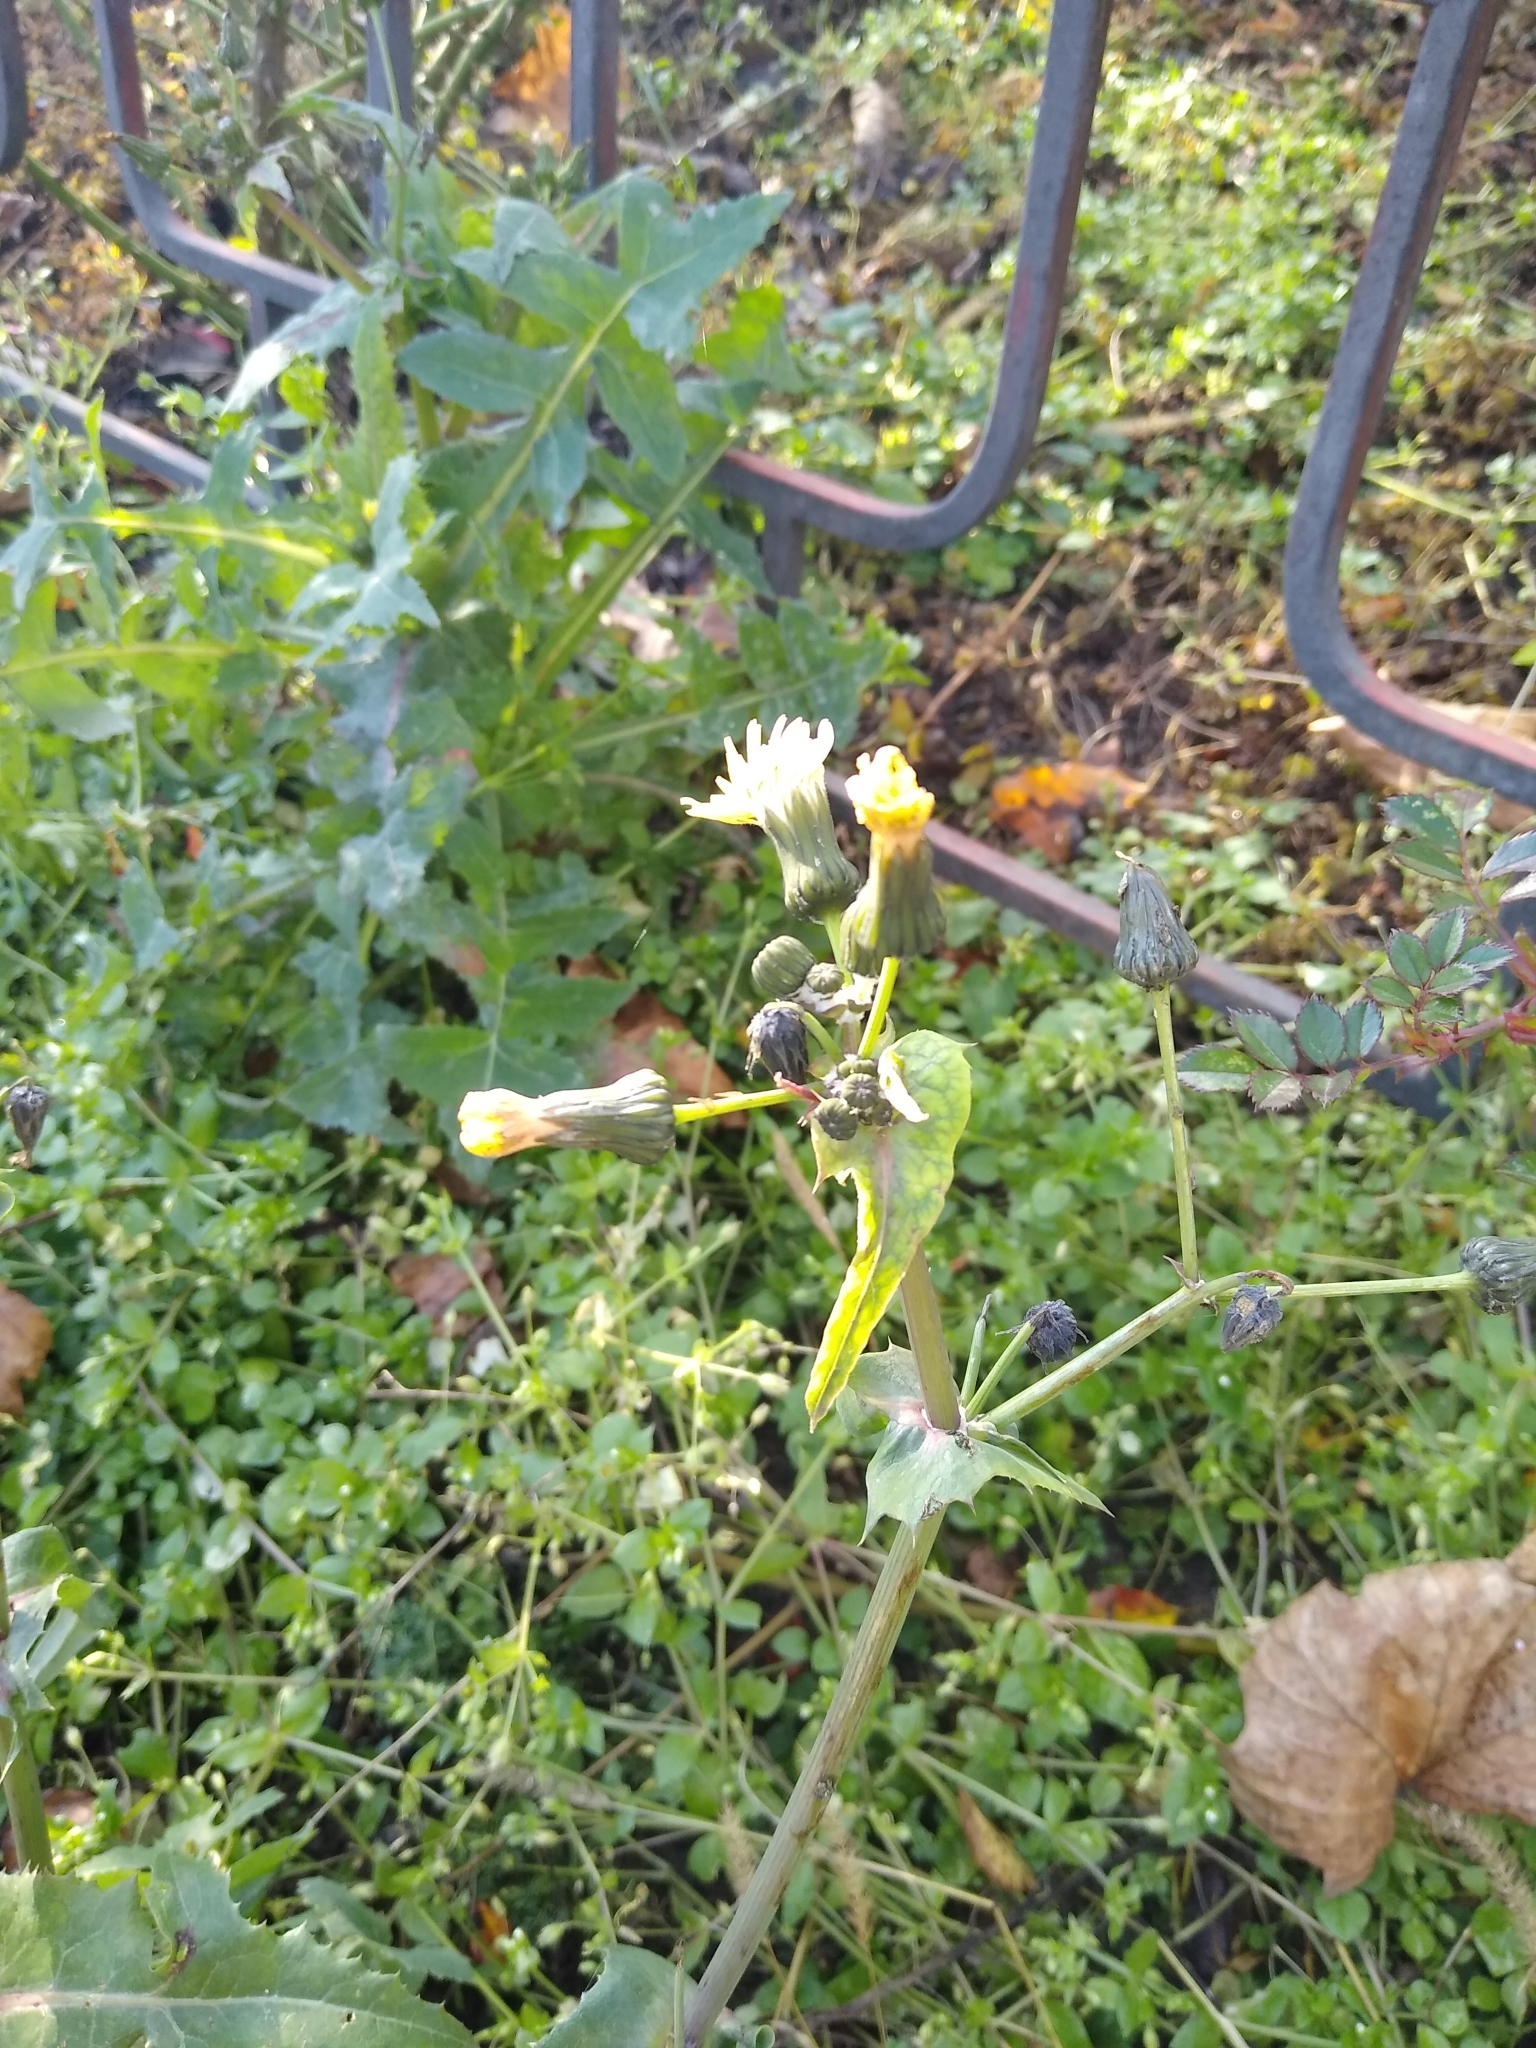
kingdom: Plantae
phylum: Tracheophyta
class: Magnoliopsida
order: Asterales
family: Asteraceae
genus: Sonchus
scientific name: Sonchus oleraceus
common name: Common sowthistle
